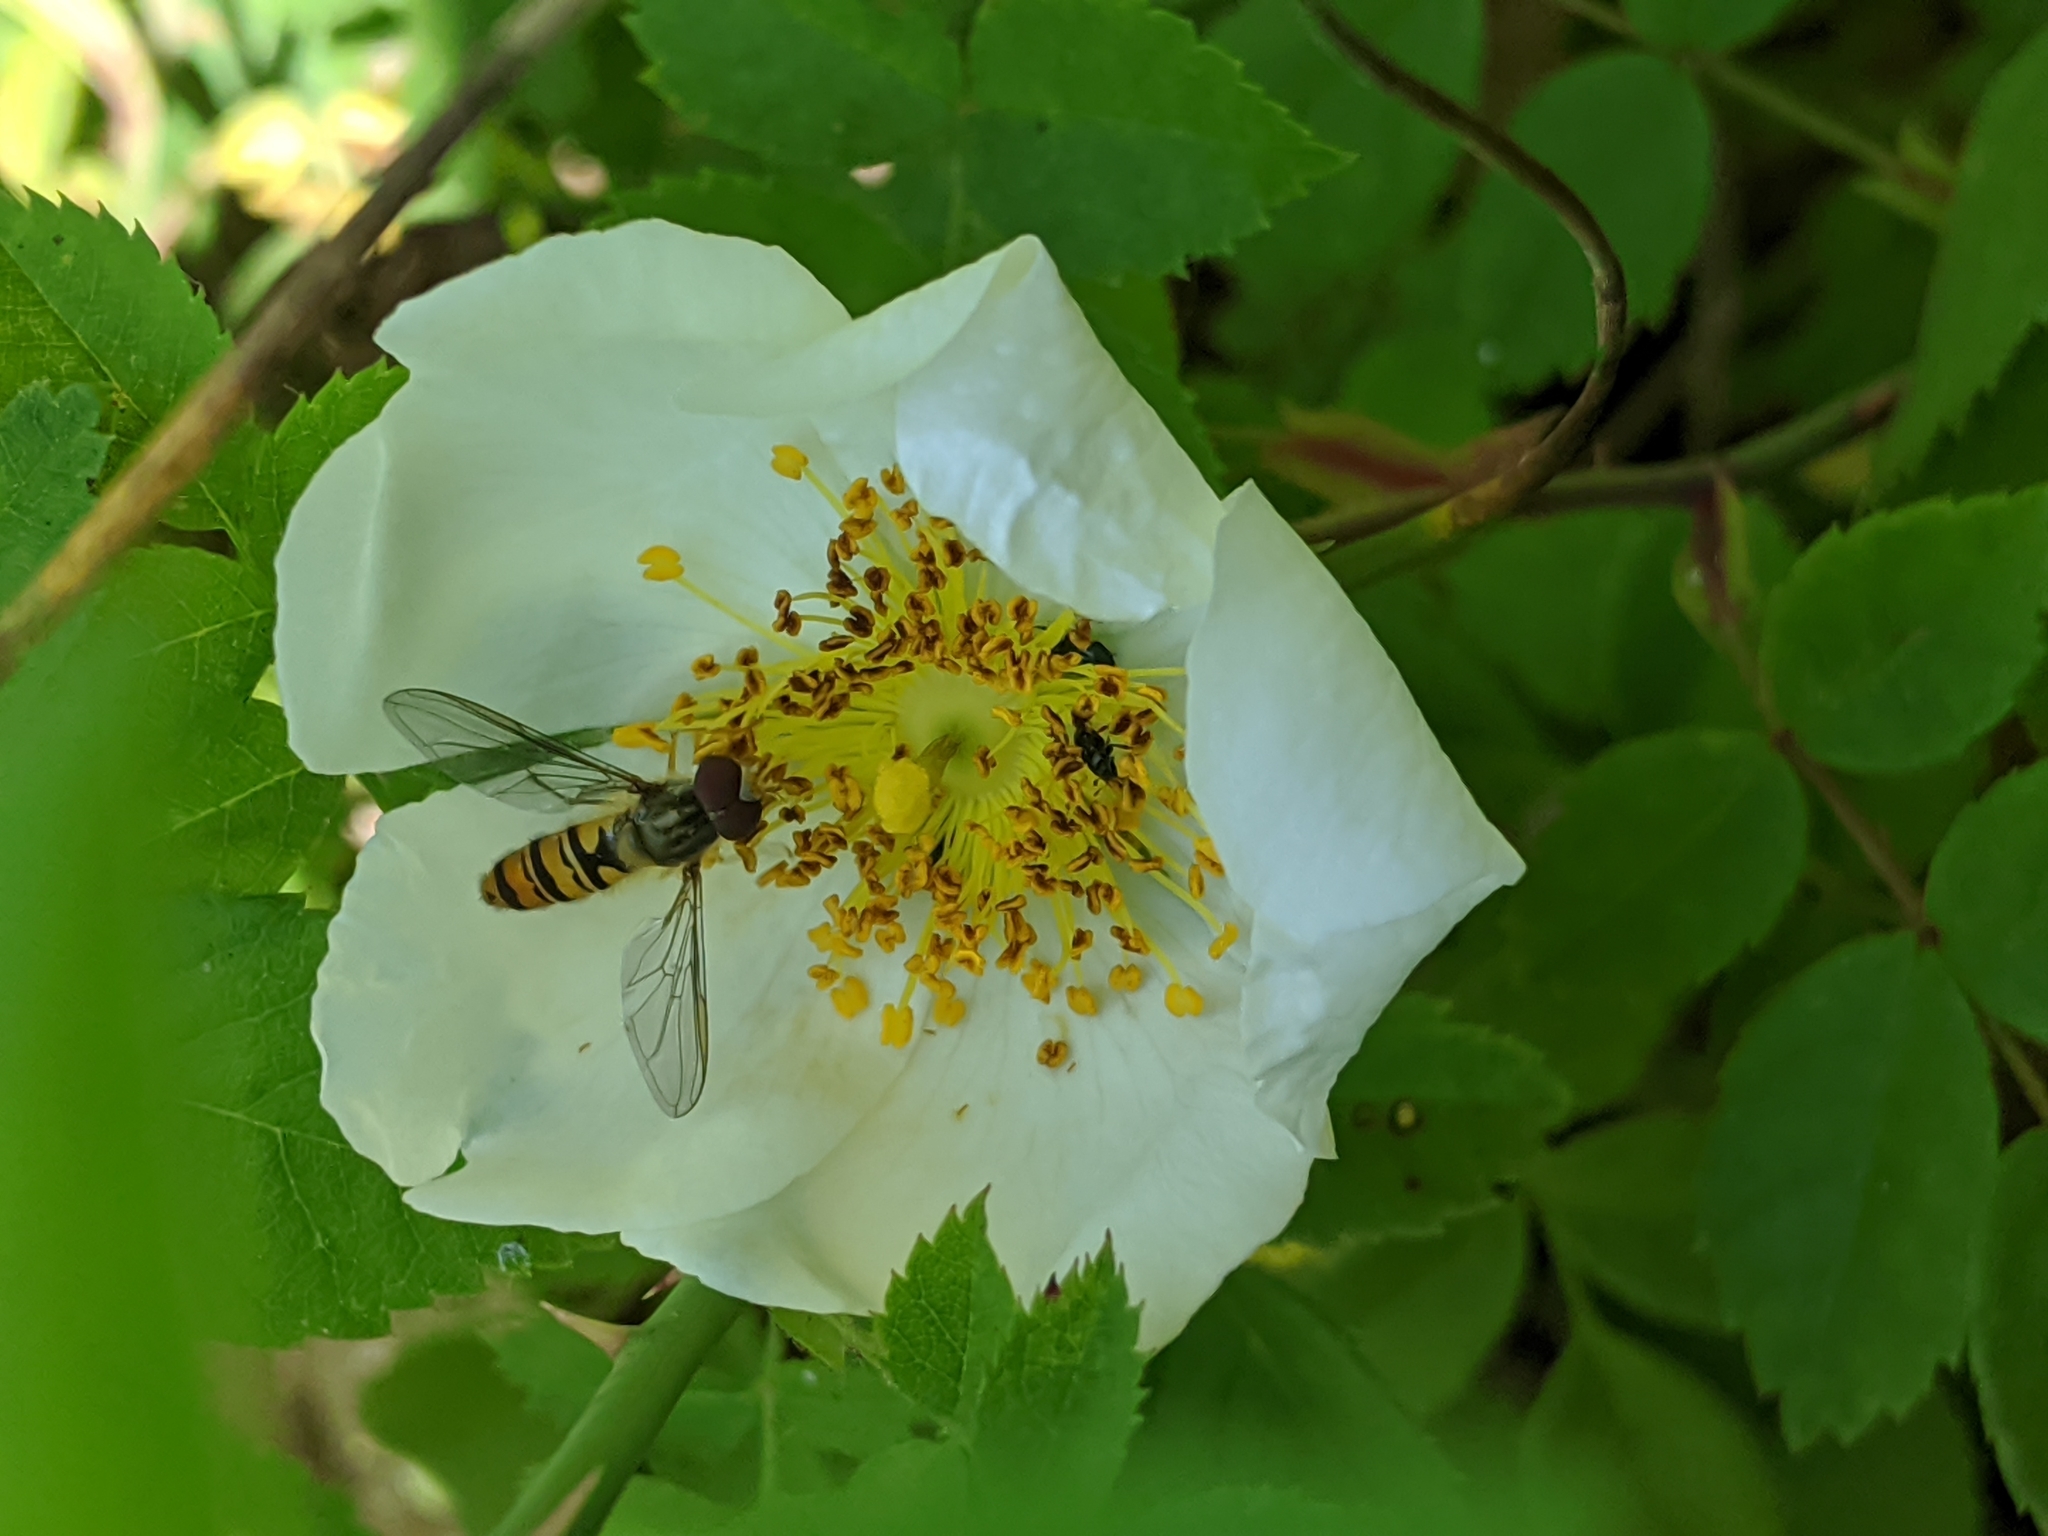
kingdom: Plantae
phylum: Tracheophyta
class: Magnoliopsida
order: Rosales
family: Rosaceae
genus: Rosa
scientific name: Rosa canina
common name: Dog rose
